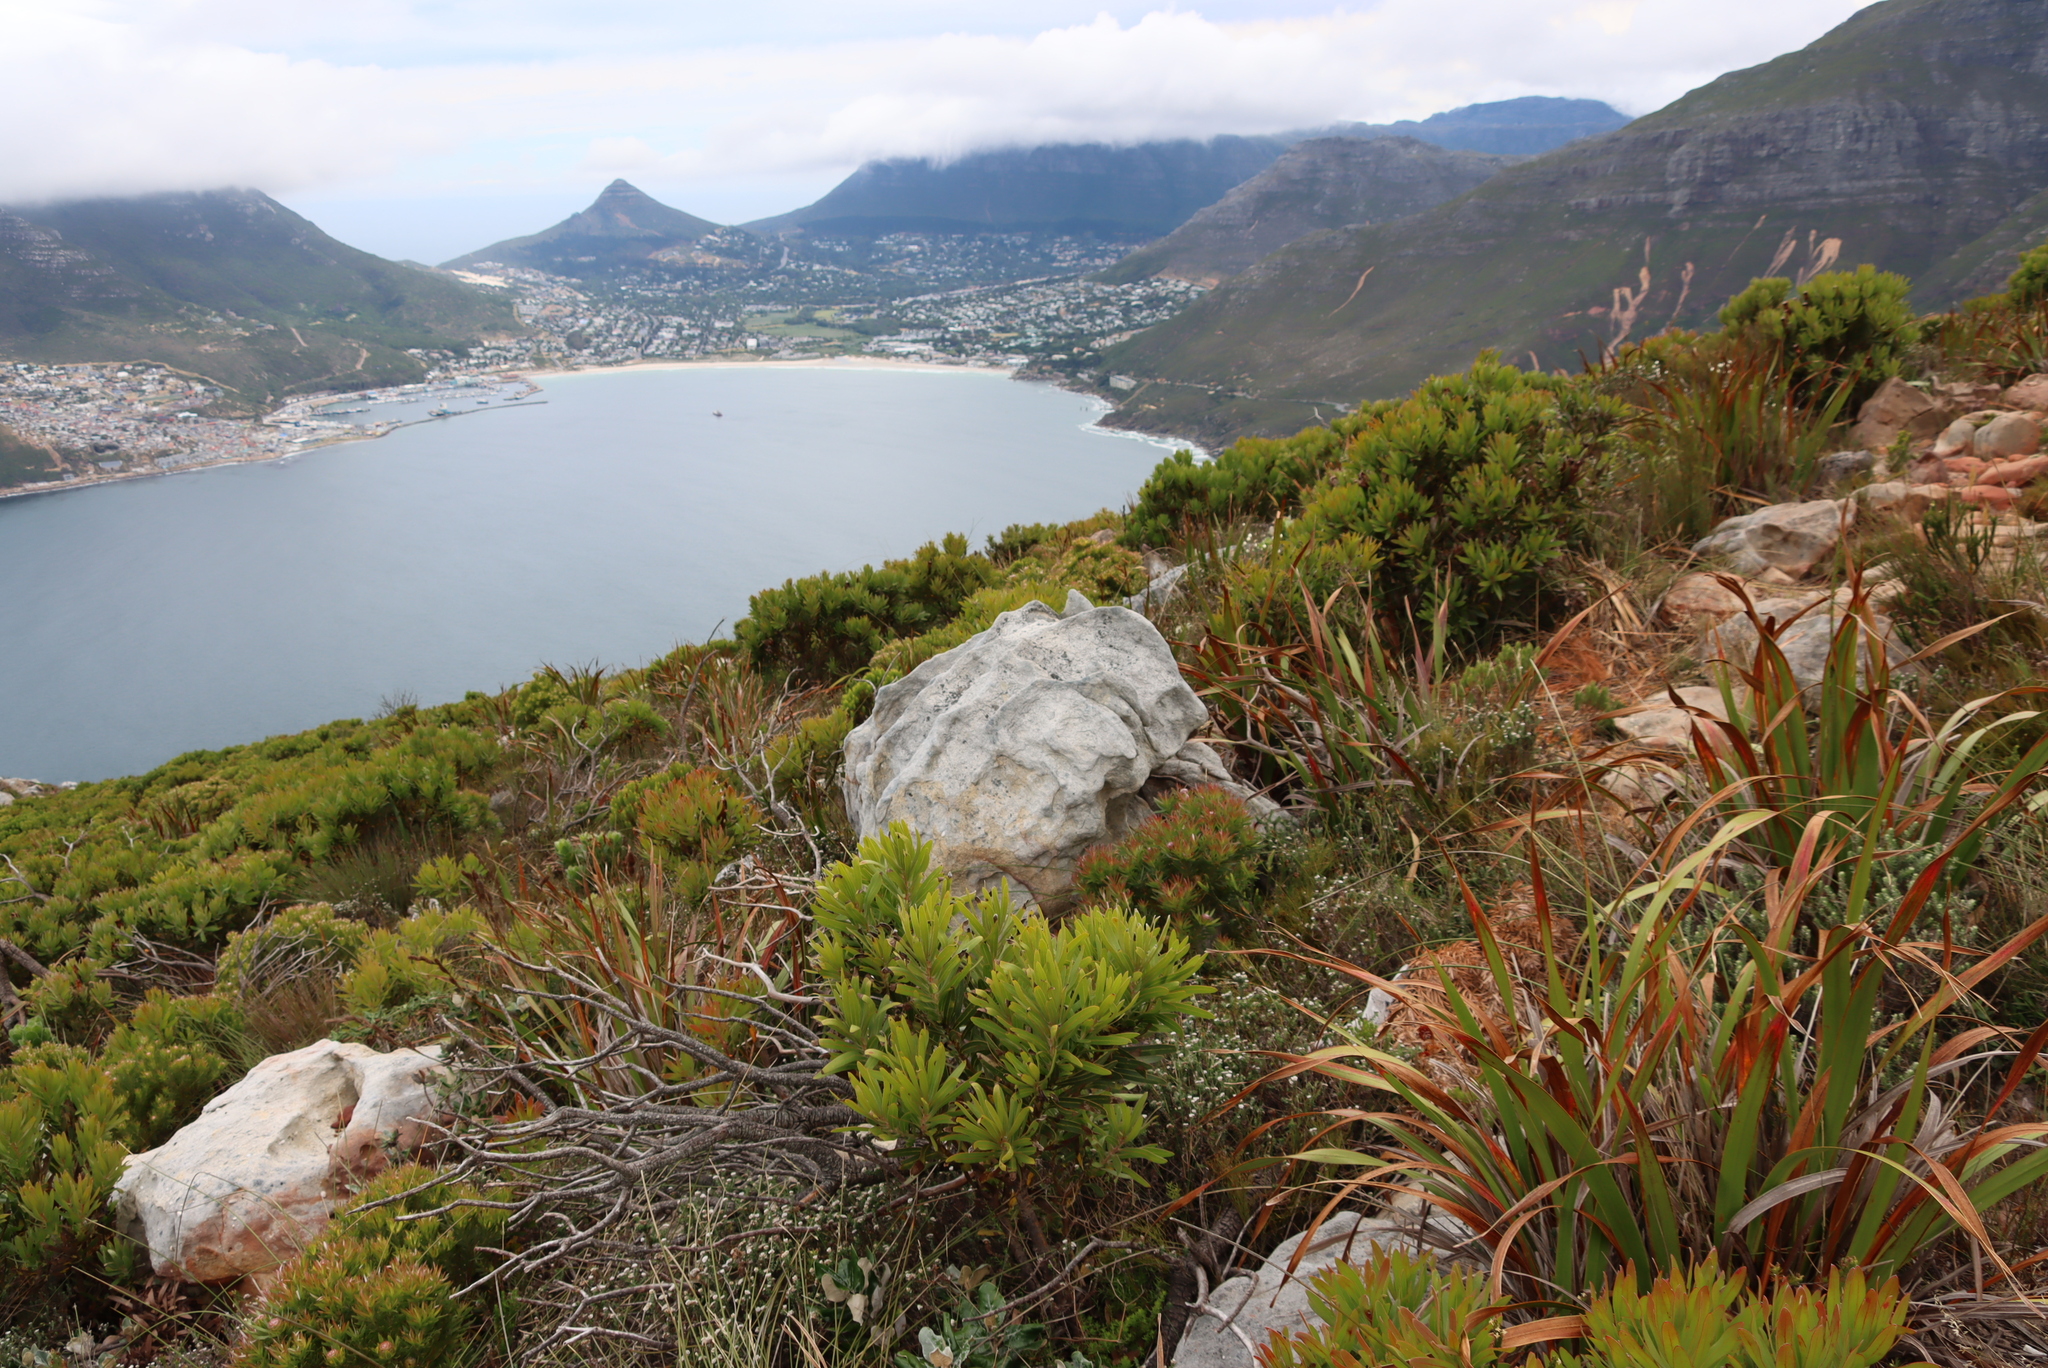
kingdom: Plantae
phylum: Tracheophyta
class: Magnoliopsida
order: Proteales
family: Proteaceae
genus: Protea
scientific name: Protea lepidocarpodendron
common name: Black-bearded protea
